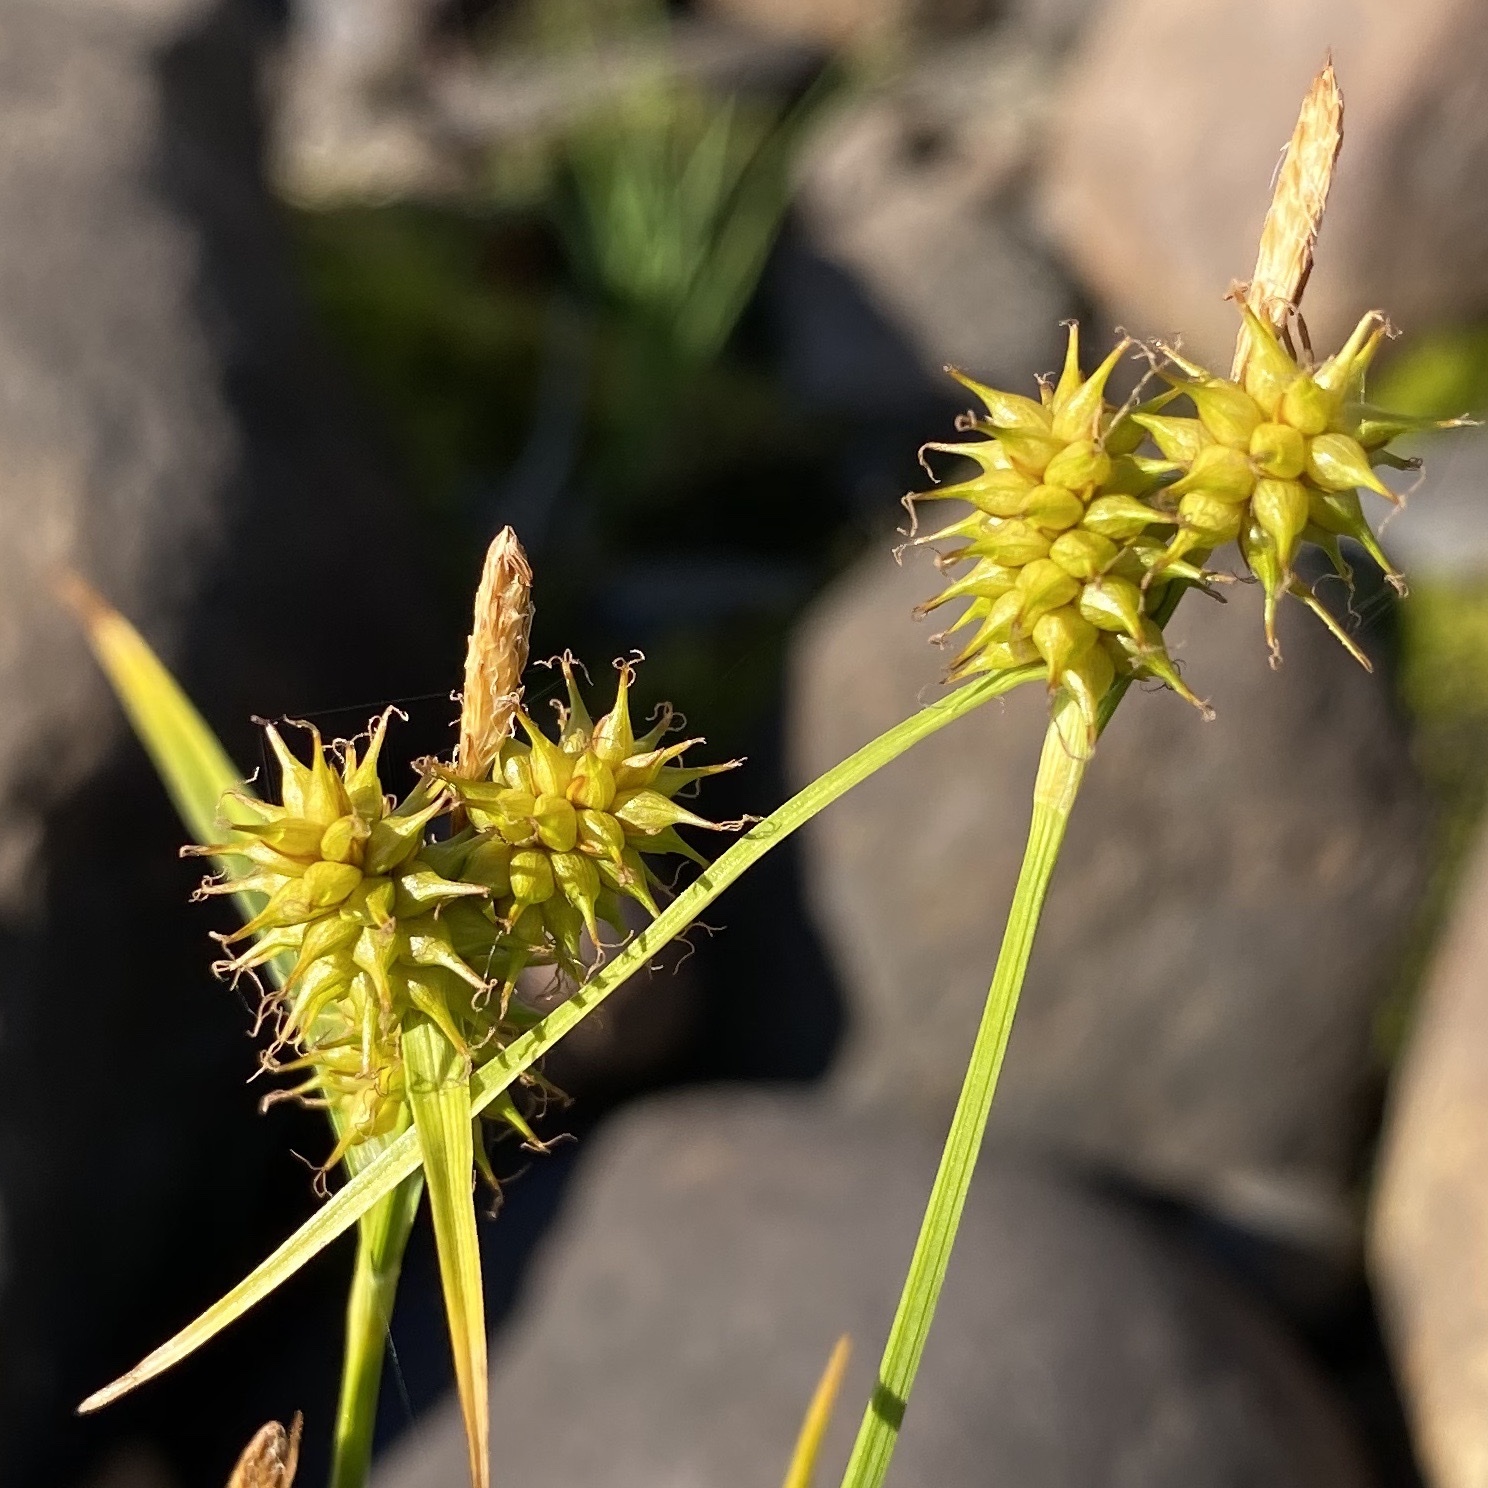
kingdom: Plantae
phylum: Tracheophyta
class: Liliopsida
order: Poales
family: Cyperaceae
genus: Carex
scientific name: Carex flava
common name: Large yellow-sedge
